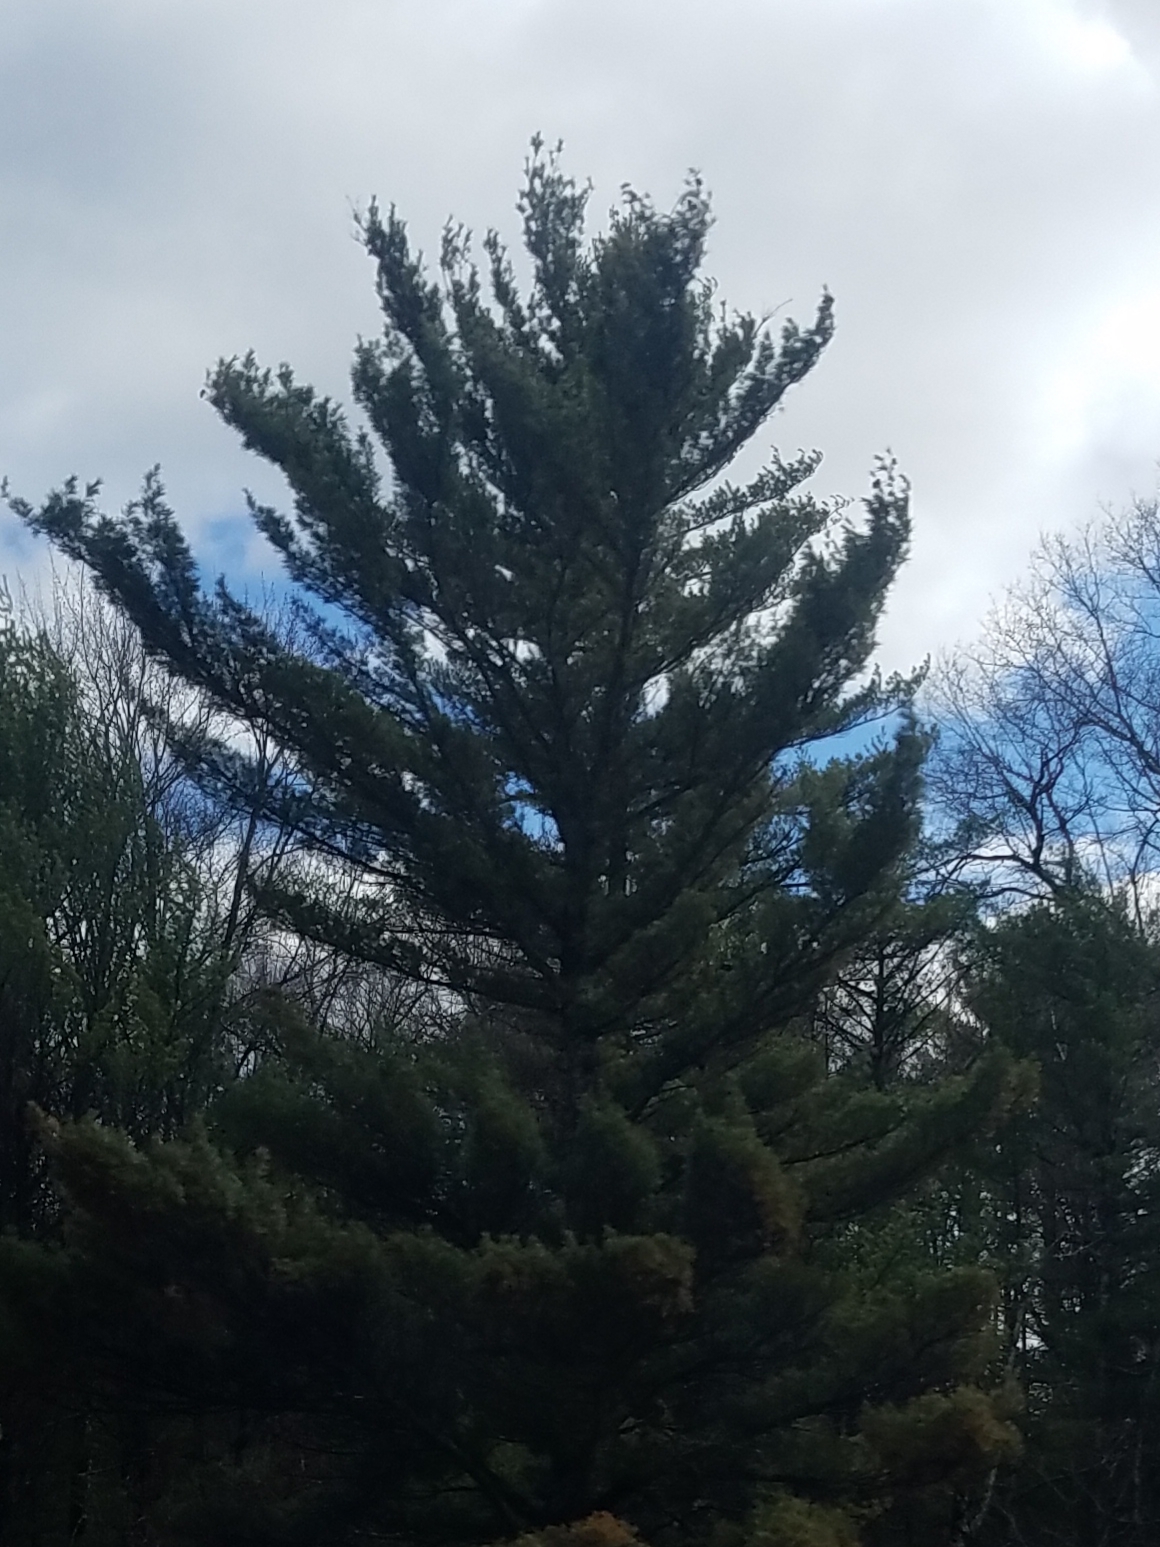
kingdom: Plantae
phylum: Tracheophyta
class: Pinopsida
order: Pinales
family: Pinaceae
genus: Pinus
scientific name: Pinus strobus
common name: Weymouth pine
